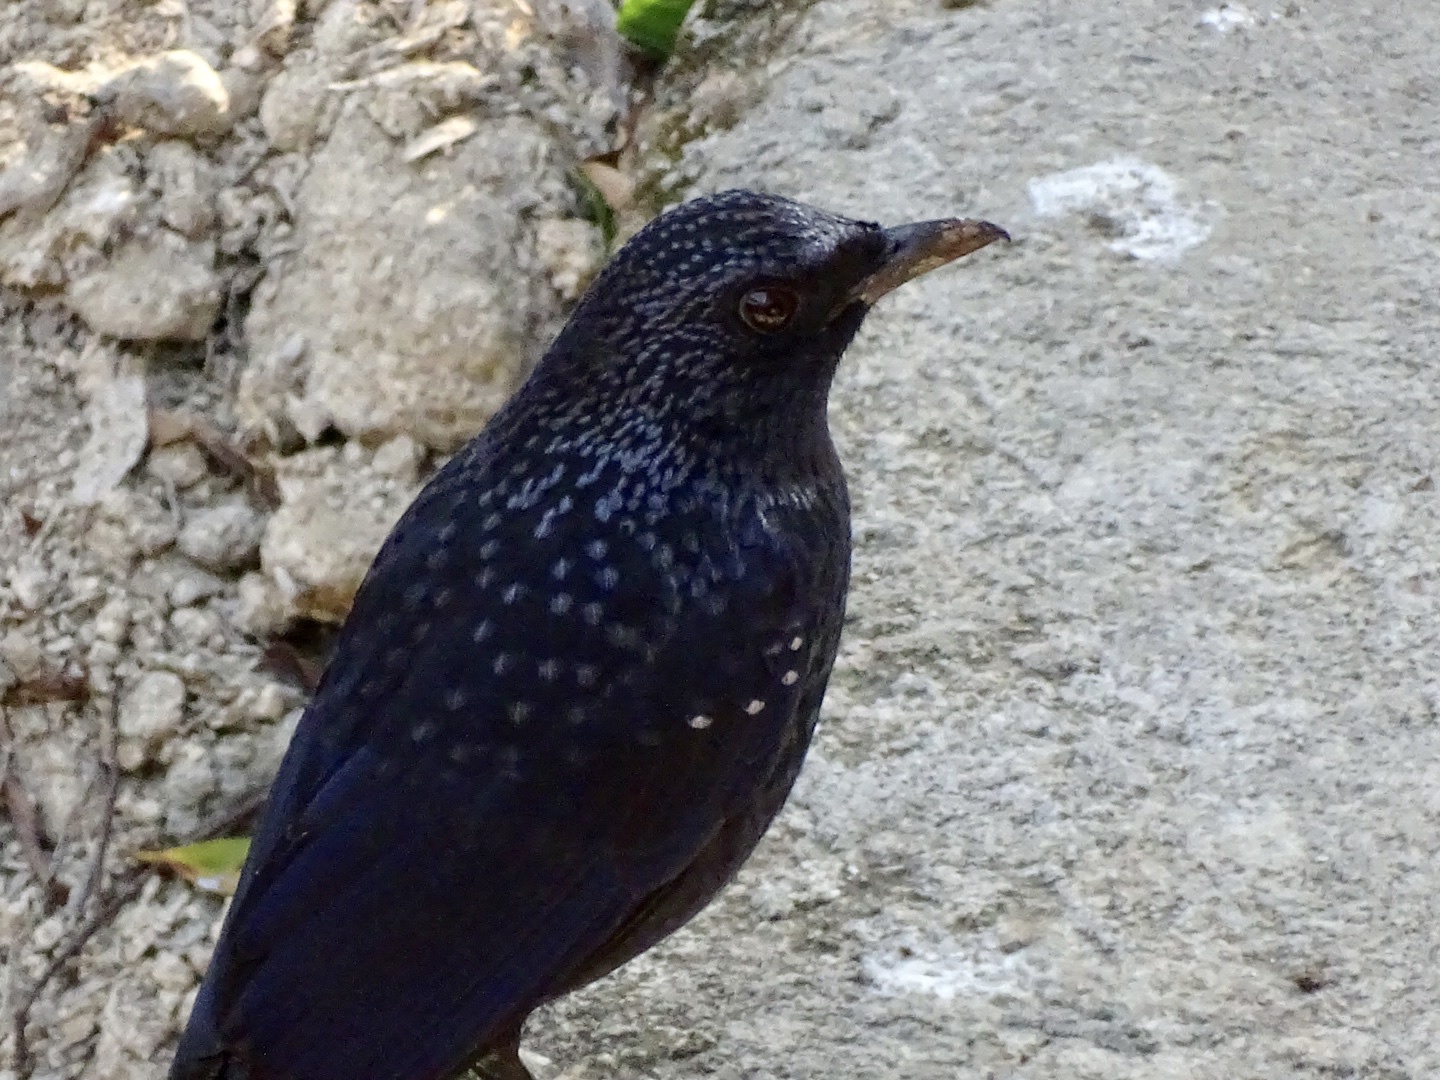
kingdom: Animalia
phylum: Chordata
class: Aves
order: Passeriformes
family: Muscicapidae
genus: Myophonus
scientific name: Myophonus caeruleus
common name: Blue whistling-thrush
